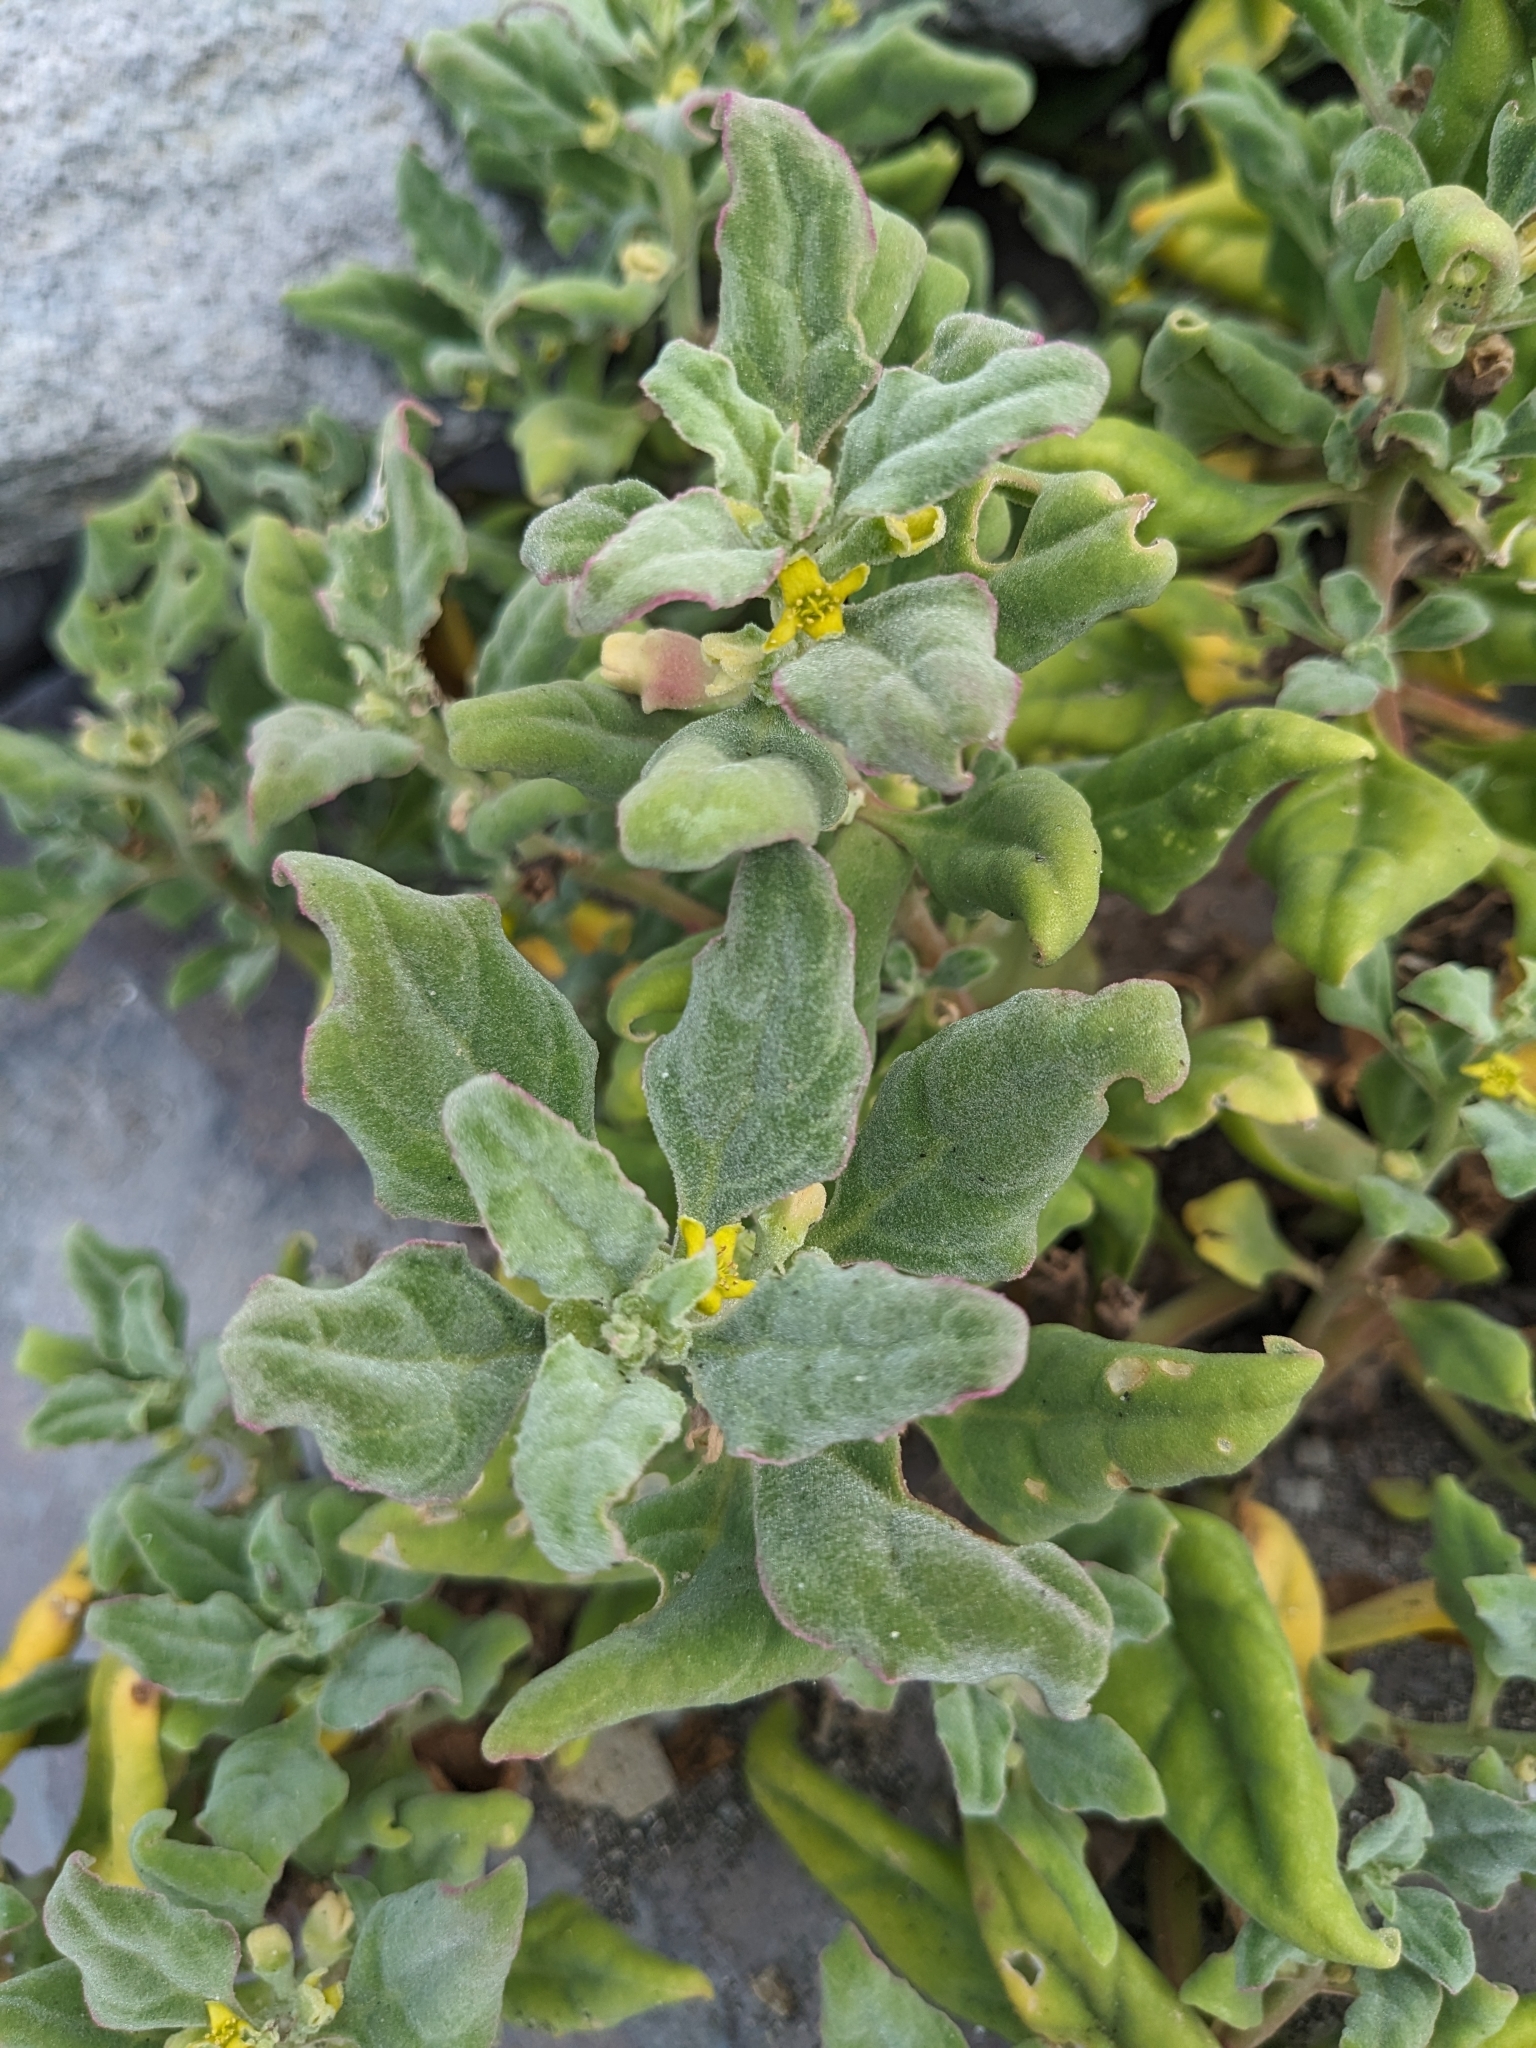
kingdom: Plantae
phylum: Tracheophyta
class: Magnoliopsida
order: Caryophyllales
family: Aizoaceae
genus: Tetragonia
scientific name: Tetragonia tetragonoides
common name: New zealand-spinach
